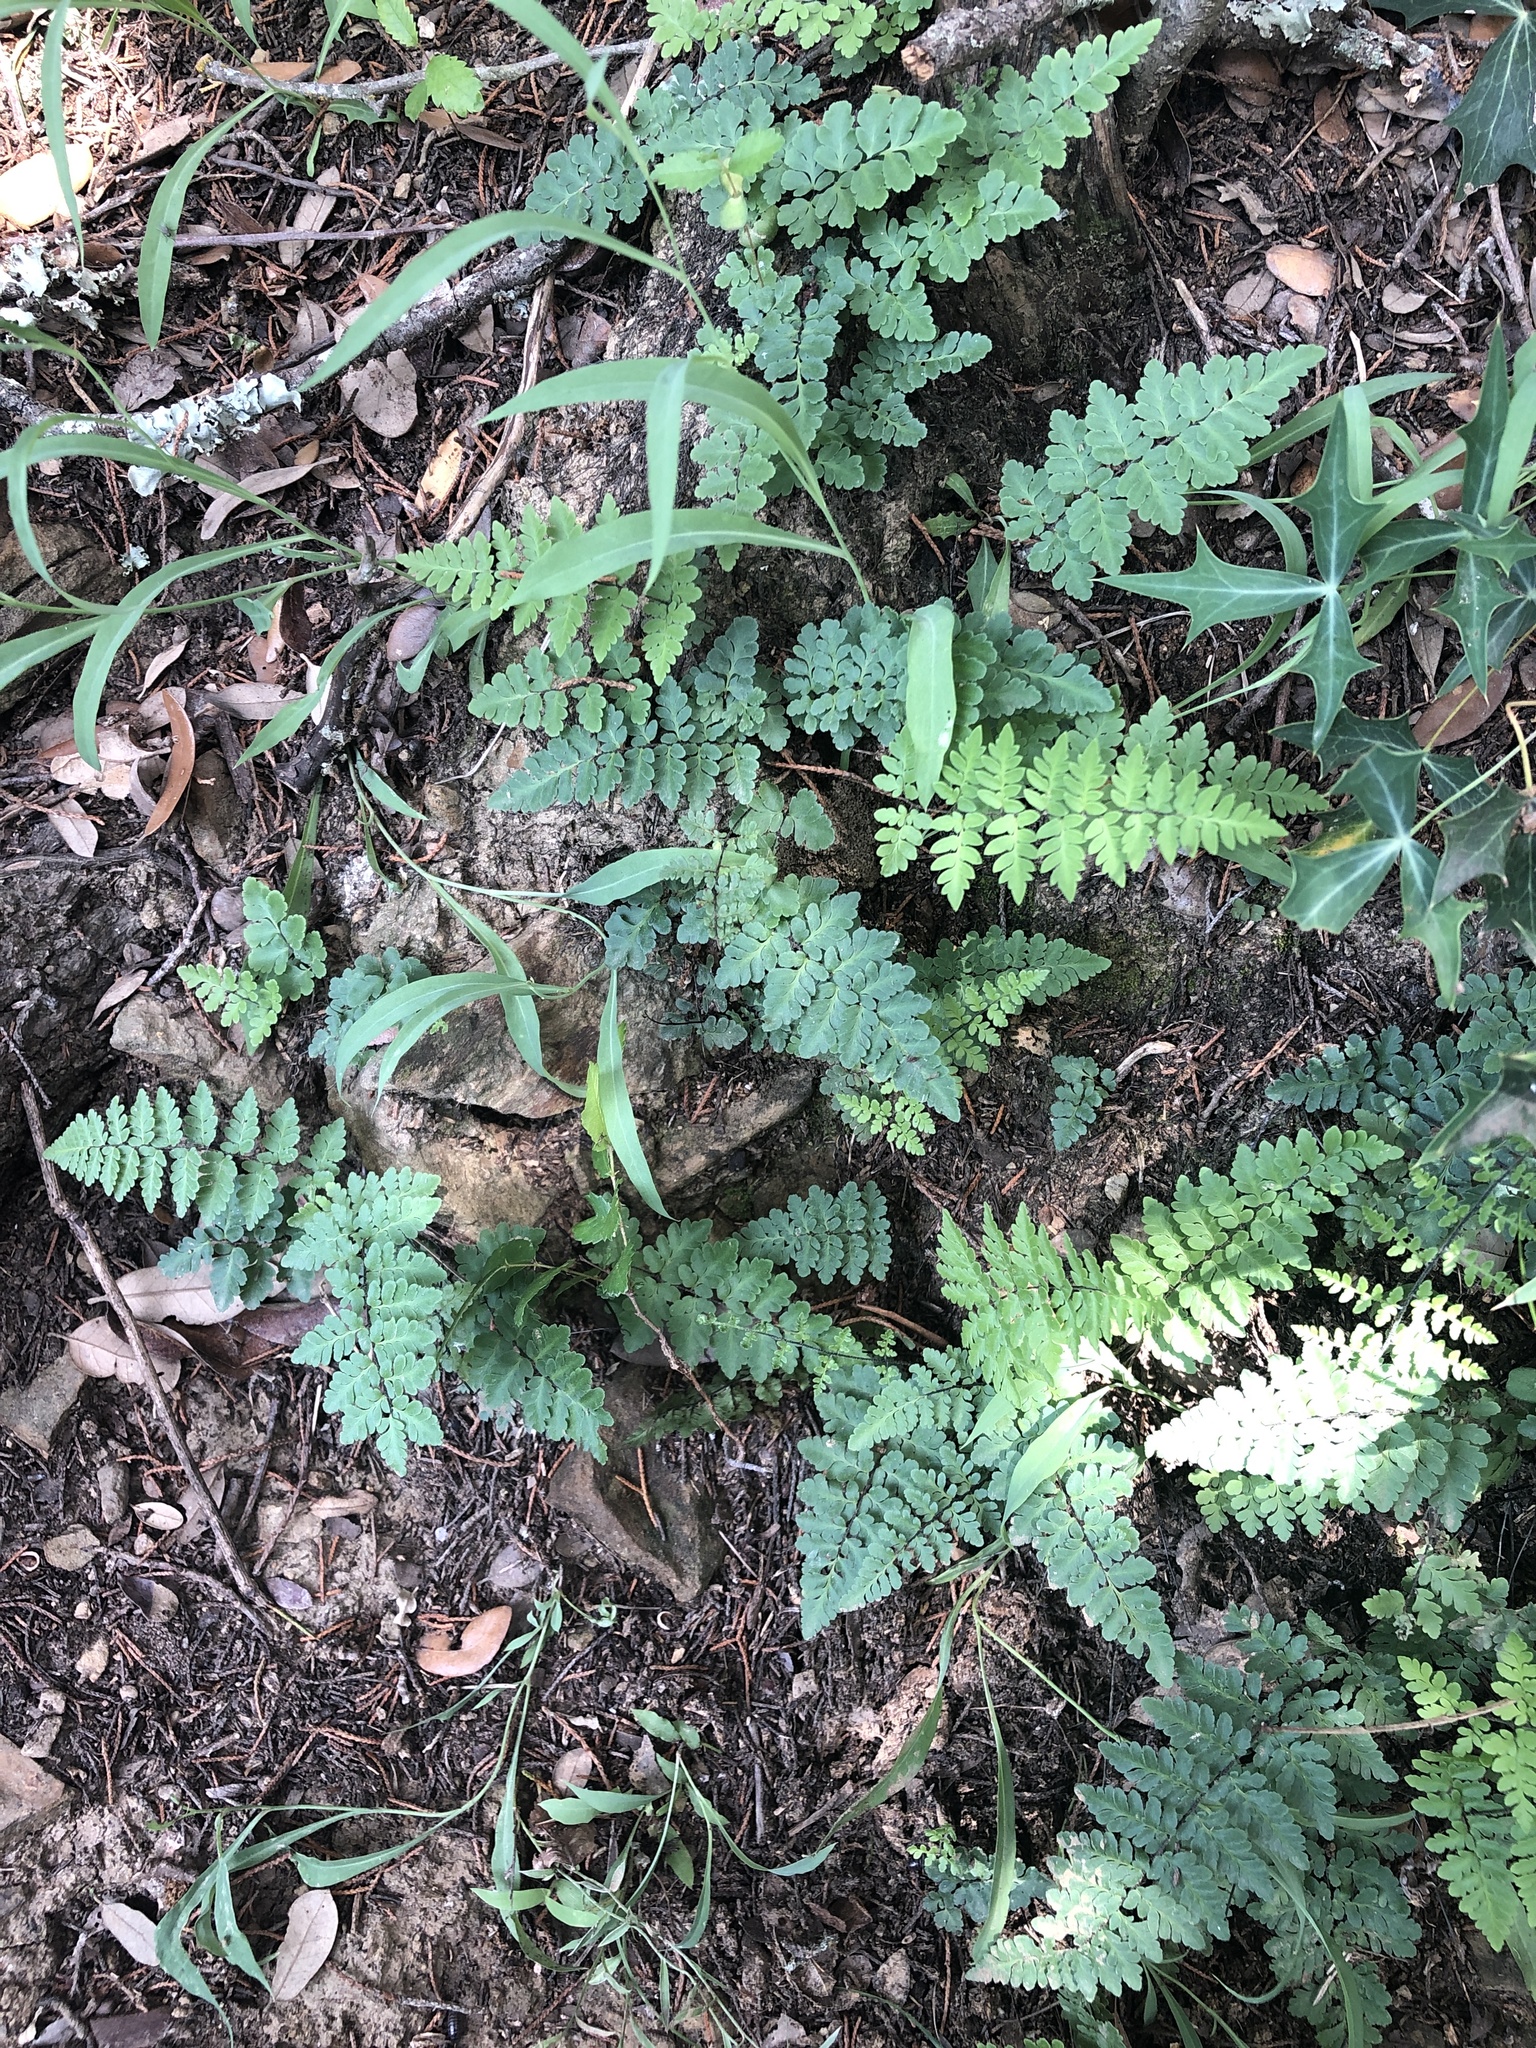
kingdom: Plantae
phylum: Tracheophyta
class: Polypodiopsida
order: Polypodiales
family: Pteridaceae
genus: Myriopteris
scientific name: Myriopteris alabamensis
